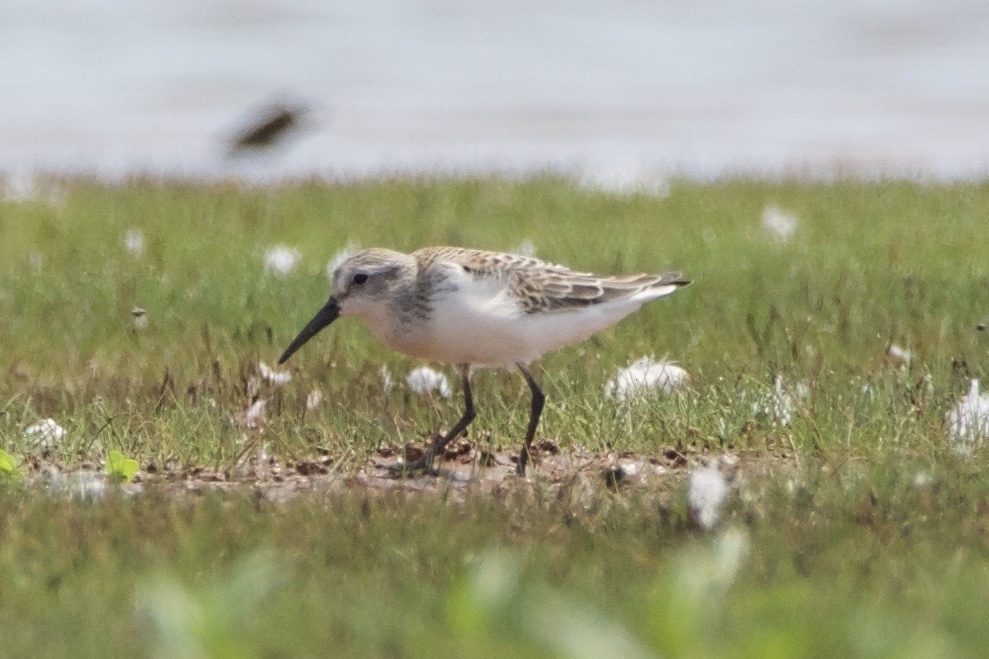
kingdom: Animalia
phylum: Chordata
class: Aves
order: Charadriiformes
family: Scolopacidae
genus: Calidris
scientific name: Calidris mauri
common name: Western sandpiper
